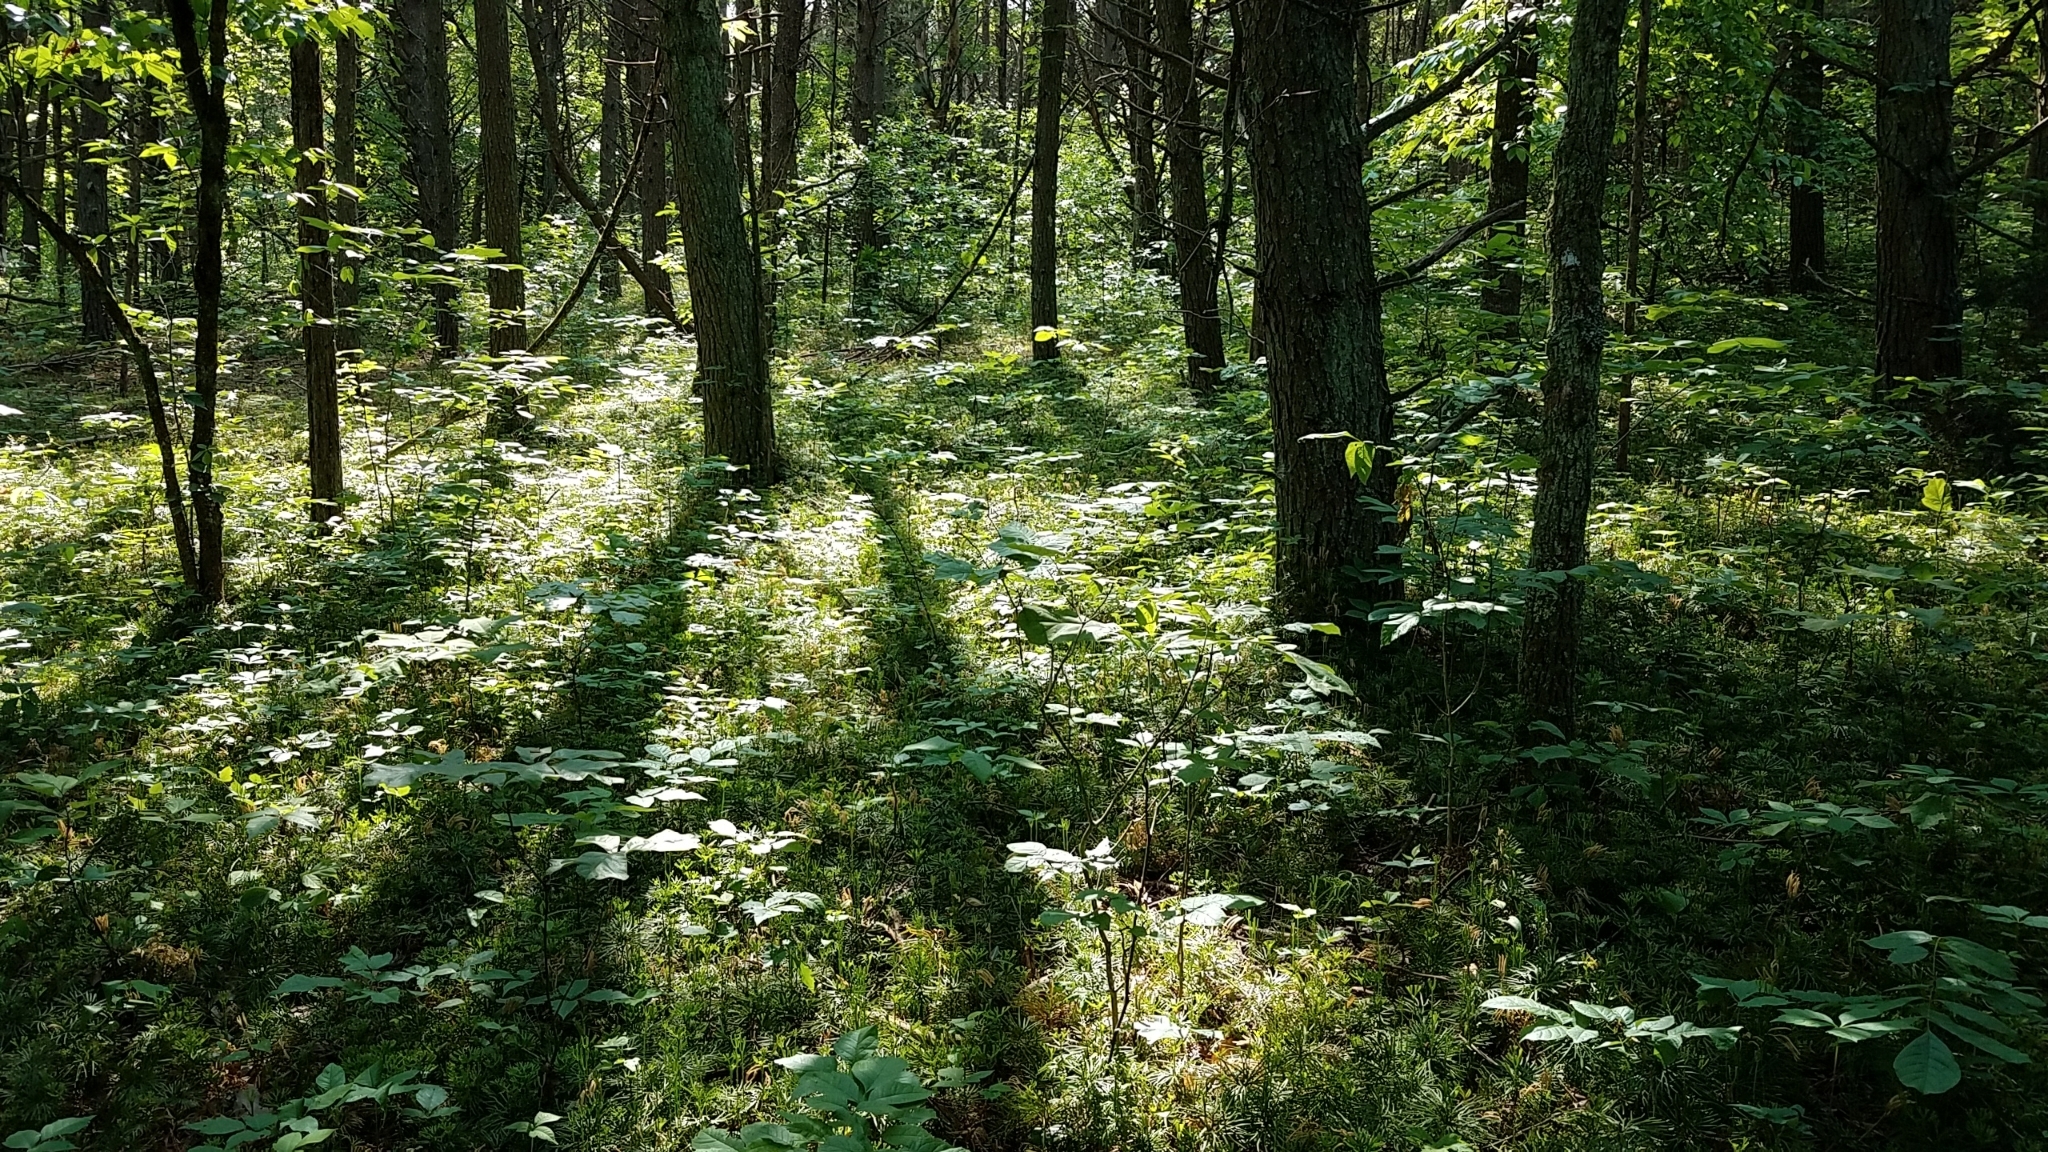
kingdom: Plantae
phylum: Tracheophyta
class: Lycopodiopsida
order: Lycopodiales
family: Lycopodiaceae
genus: Diphasiastrum
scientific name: Diphasiastrum digitatum
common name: Southern running-pine
